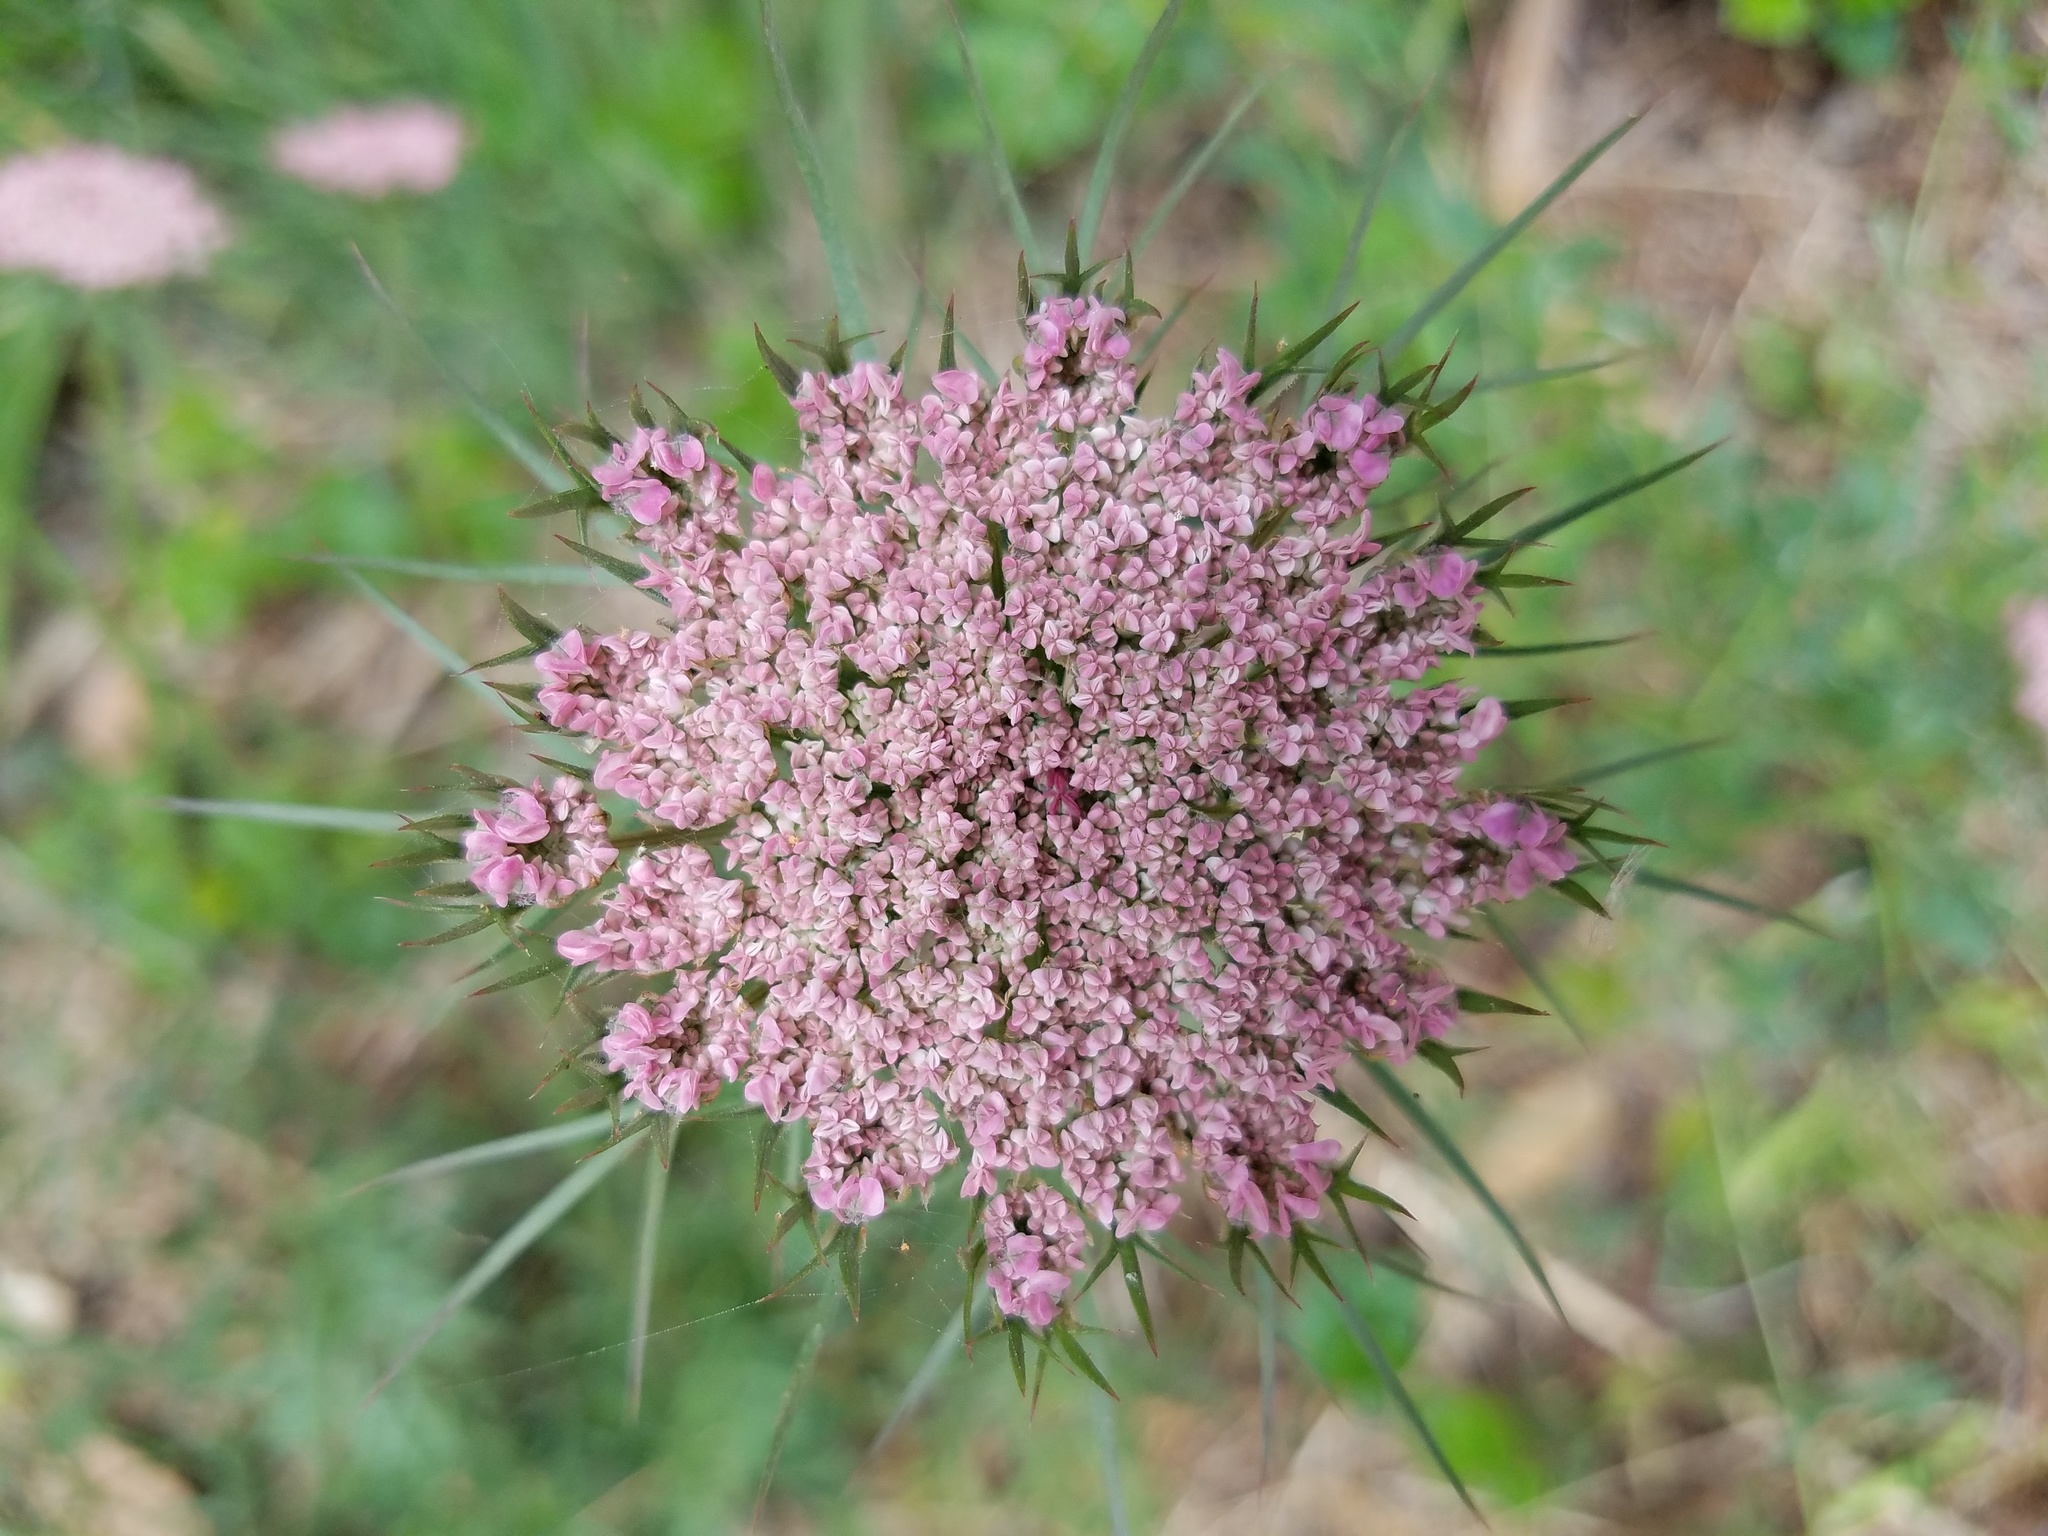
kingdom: Plantae
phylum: Tracheophyta
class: Magnoliopsida
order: Apiales
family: Apiaceae
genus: Daucus
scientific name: Daucus carota
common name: Wild carrot
